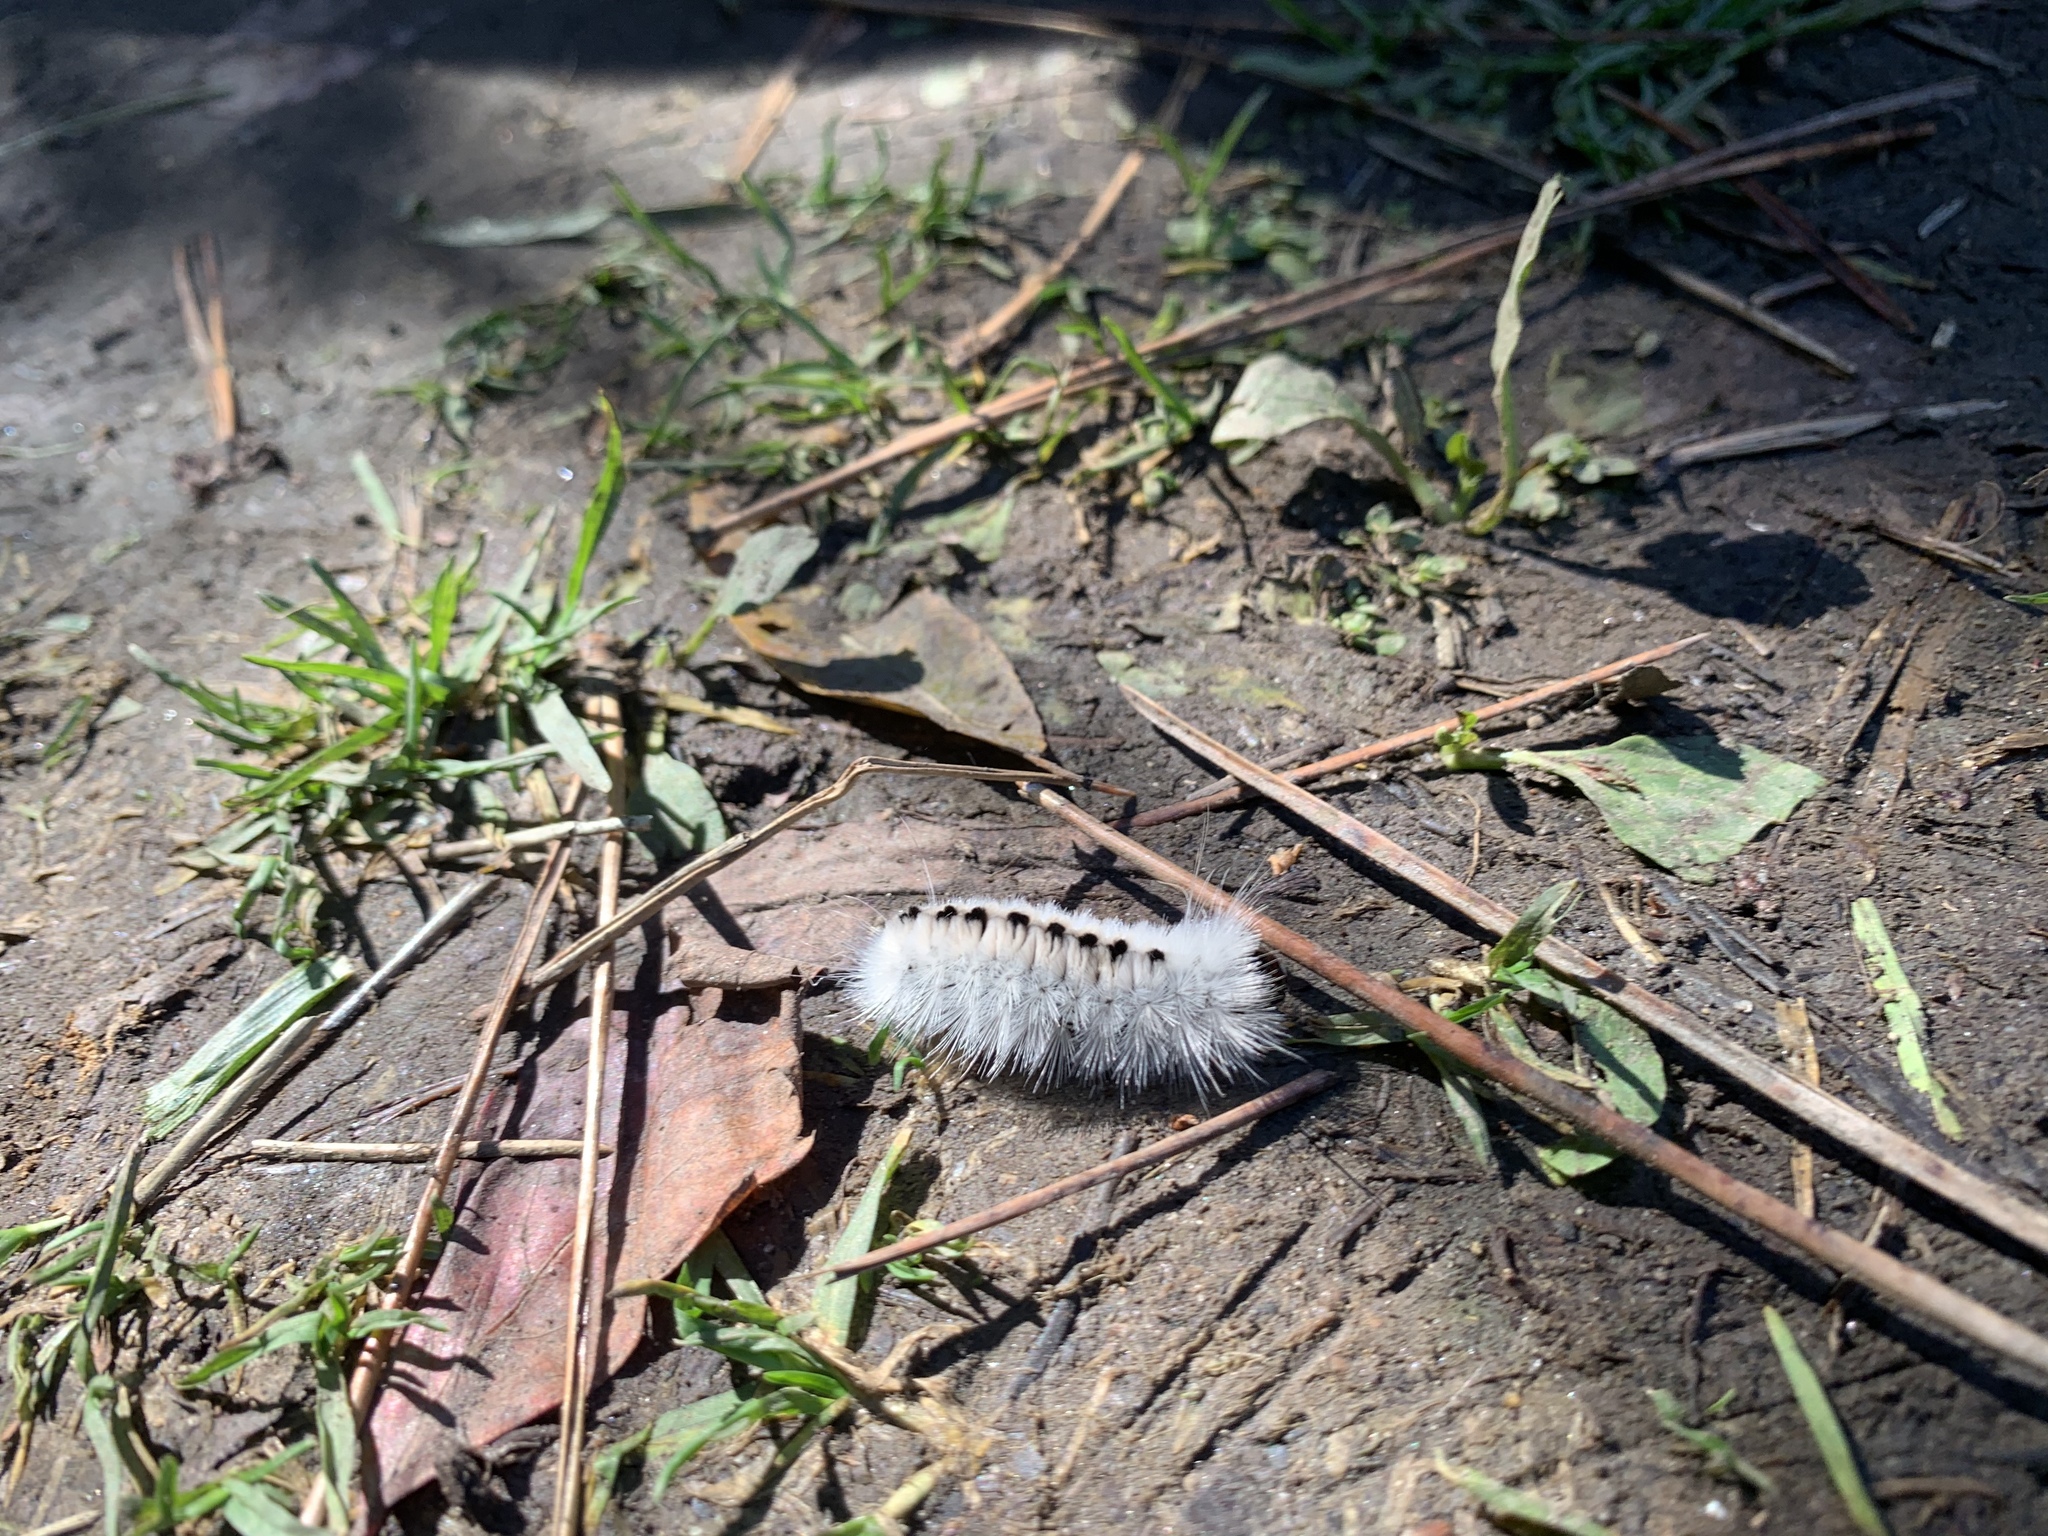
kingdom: Animalia
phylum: Arthropoda
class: Insecta
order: Lepidoptera
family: Erebidae
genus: Lophocampa
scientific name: Lophocampa caryae
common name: Hickory tussock moth
